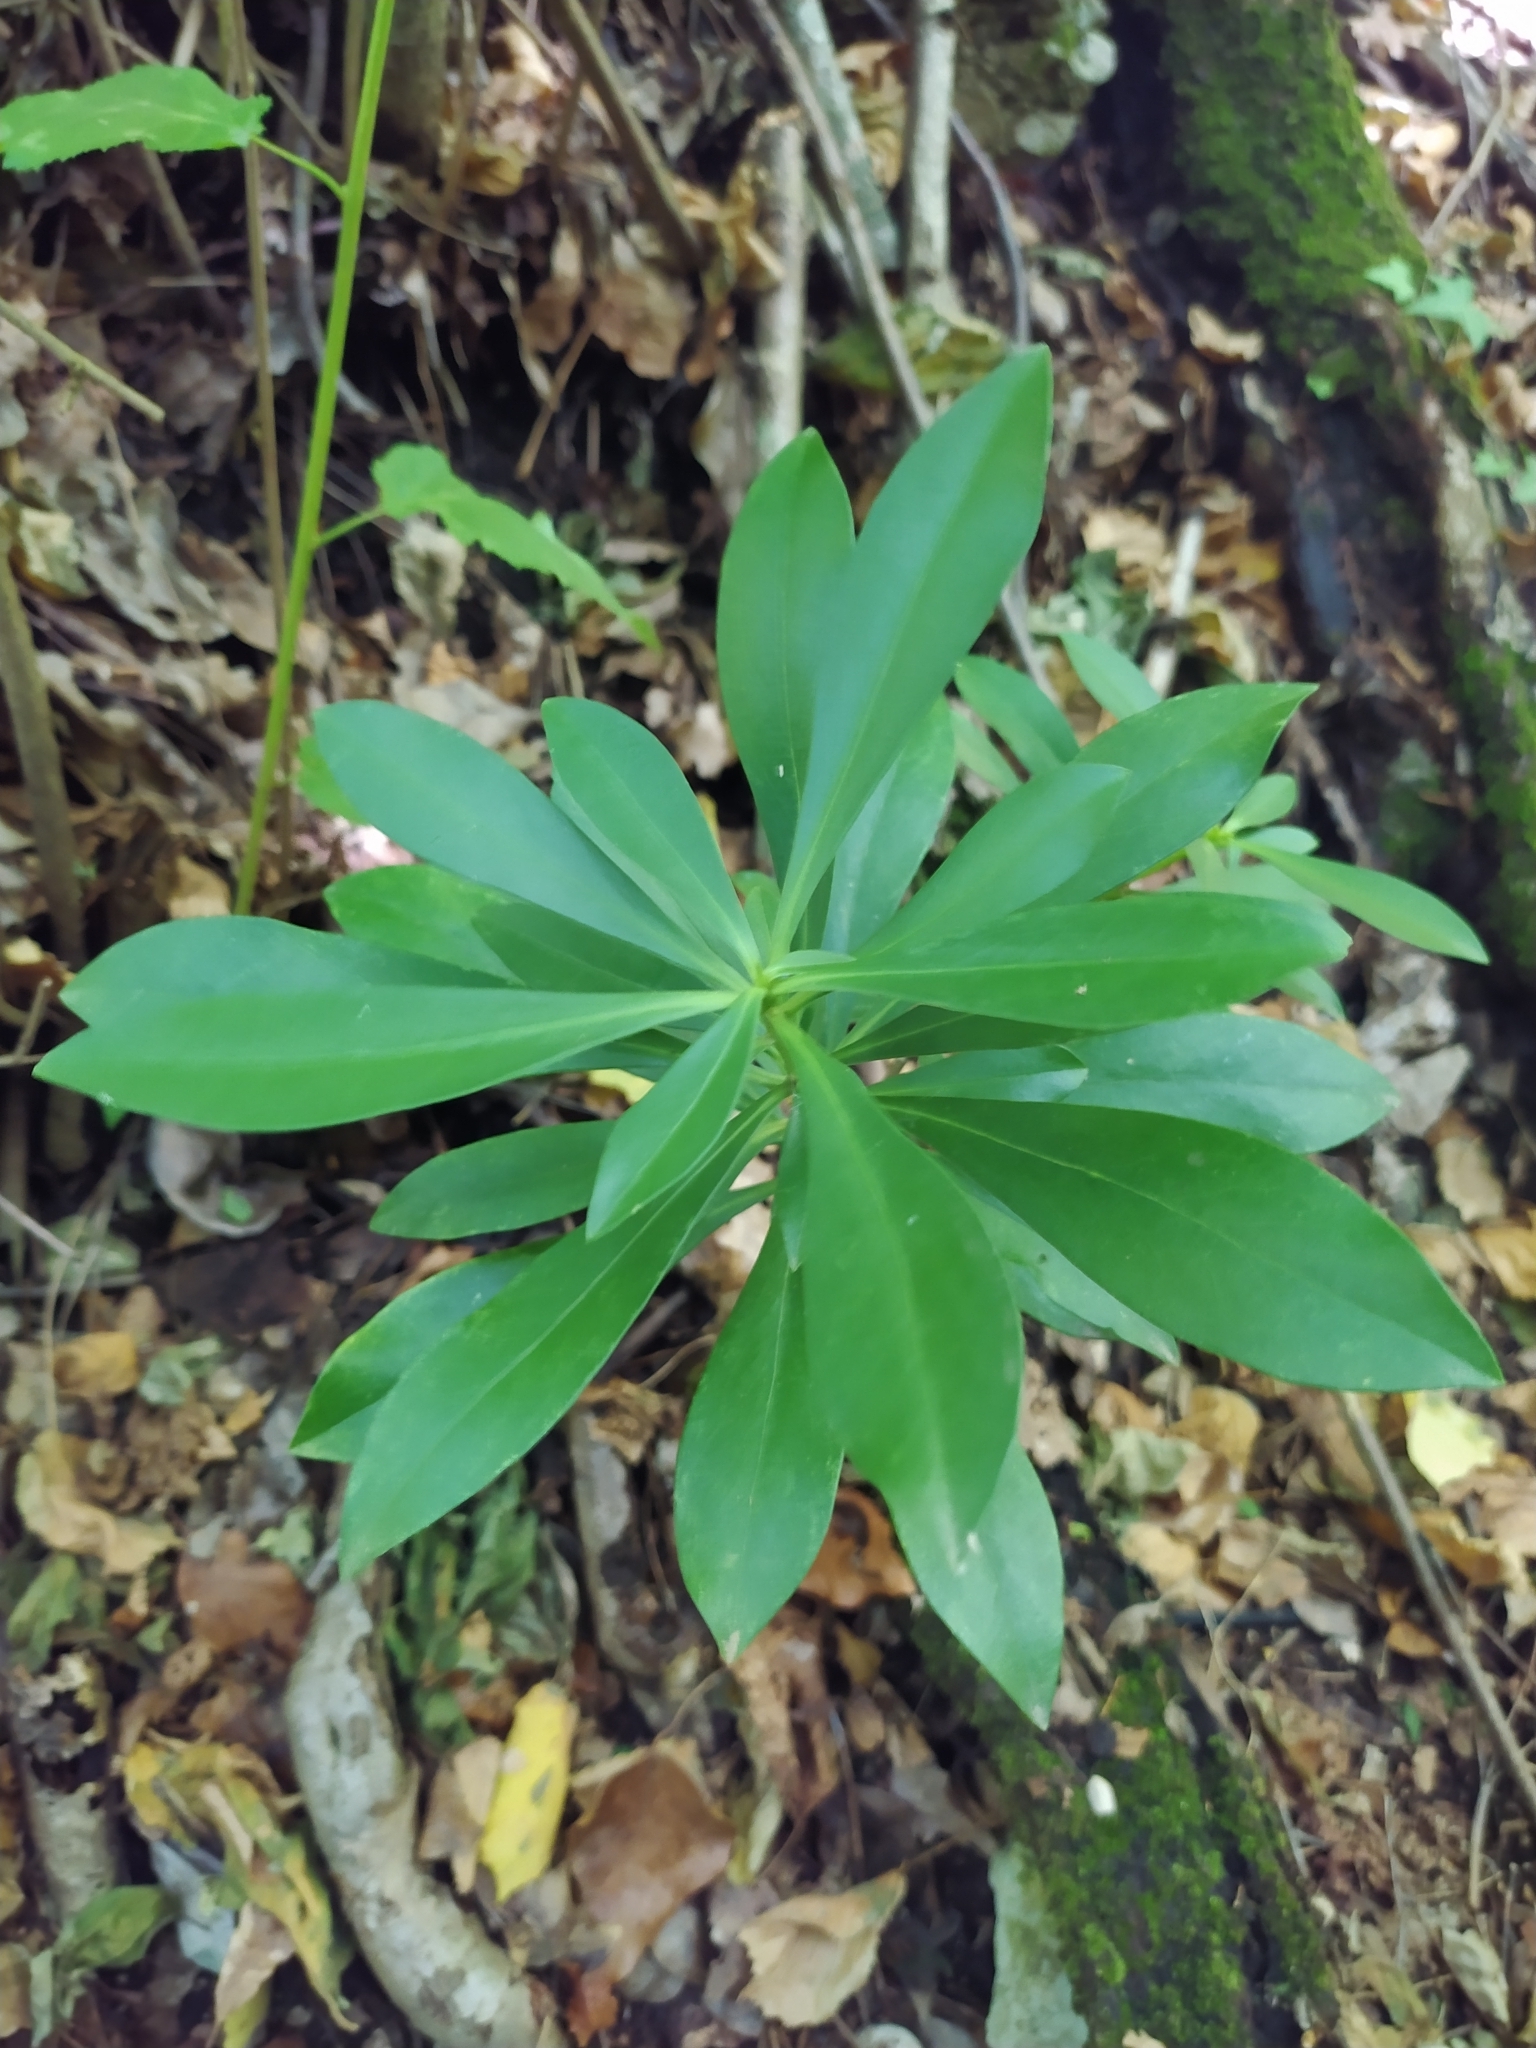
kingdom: Plantae
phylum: Tracheophyta
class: Magnoliopsida
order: Malvales
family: Thymelaeaceae
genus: Daphne
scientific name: Daphne laureola
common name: Spurge-laurel
